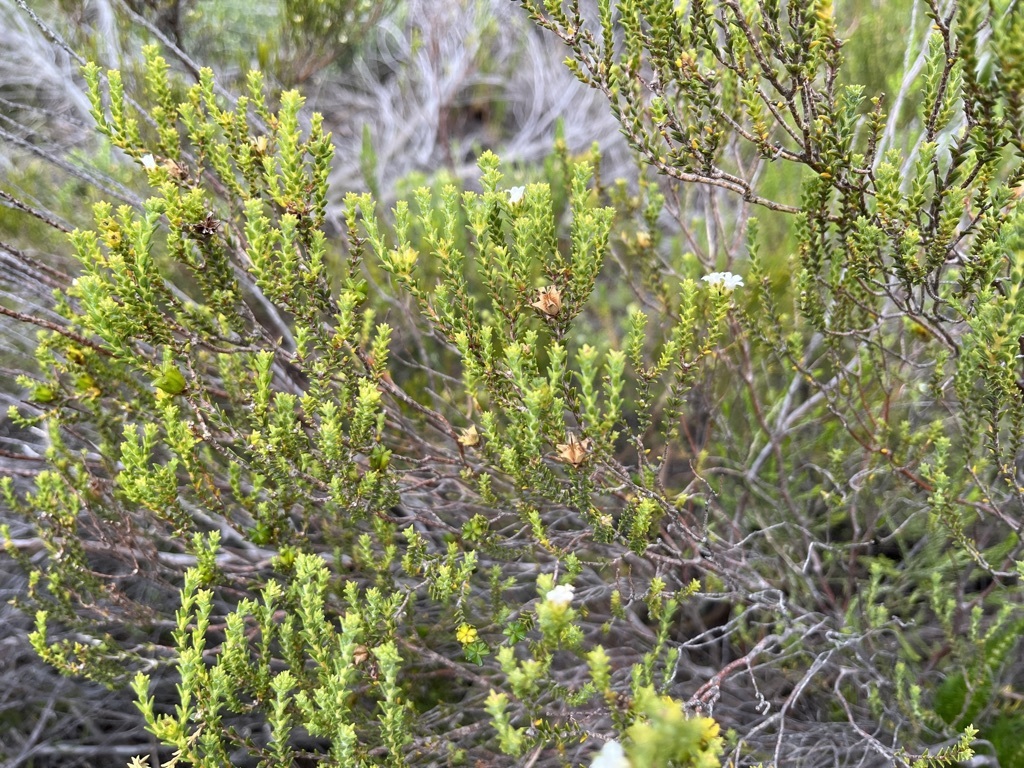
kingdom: Plantae
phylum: Tracheophyta
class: Magnoliopsida
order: Sapindales
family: Rutaceae
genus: Euchaetis
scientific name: Euchaetis albertiniana
